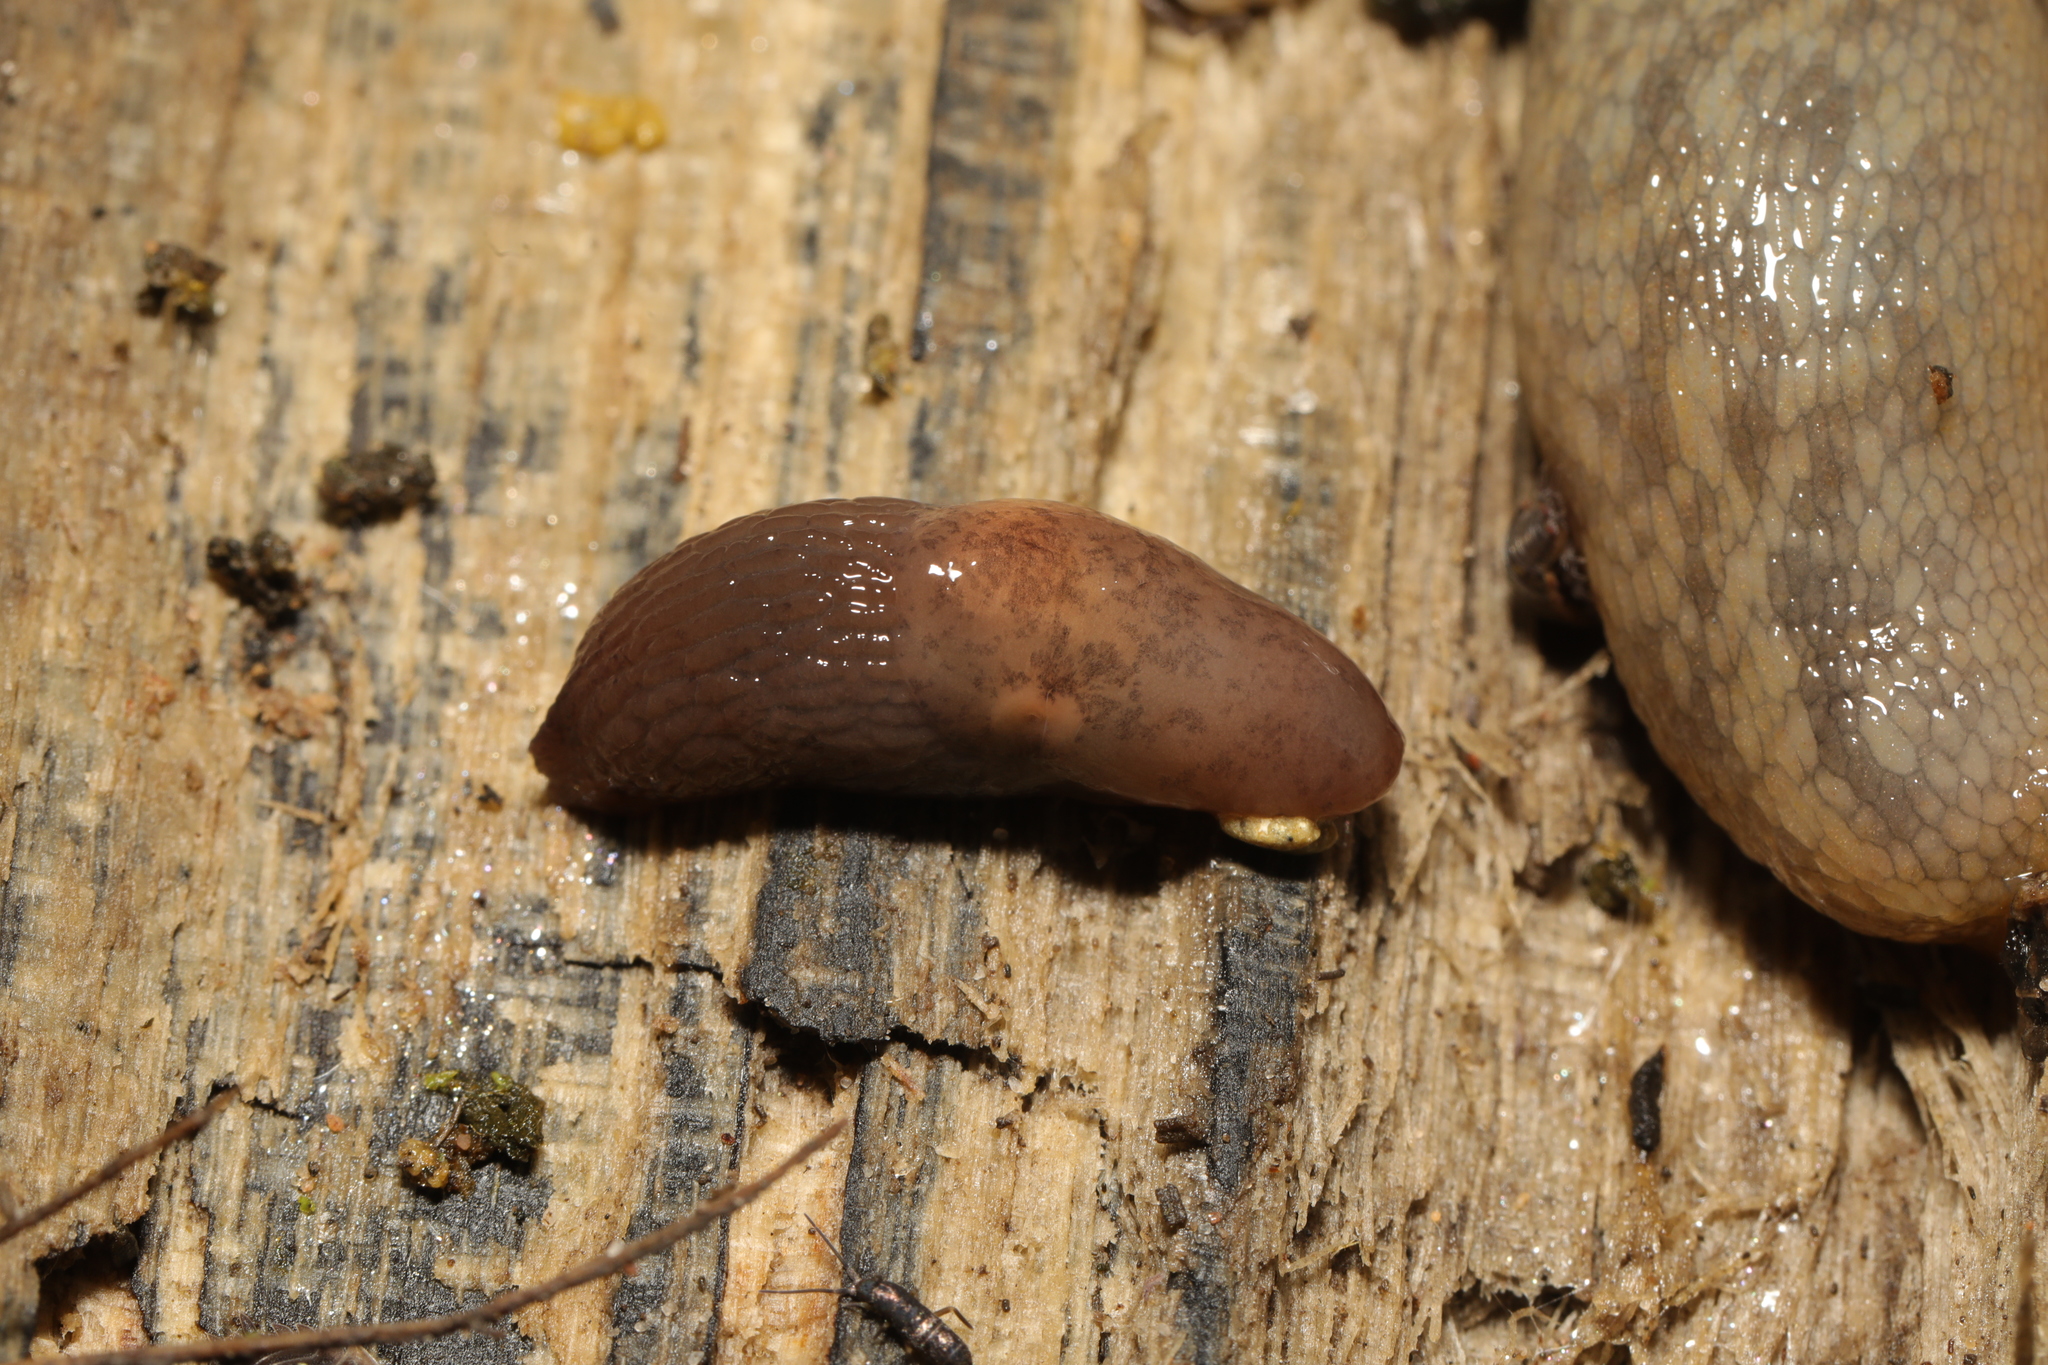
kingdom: Animalia
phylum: Mollusca
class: Gastropoda
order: Stylommatophora
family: Agriolimacidae
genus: Deroceras
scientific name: Deroceras invadens
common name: Caruana's slug
